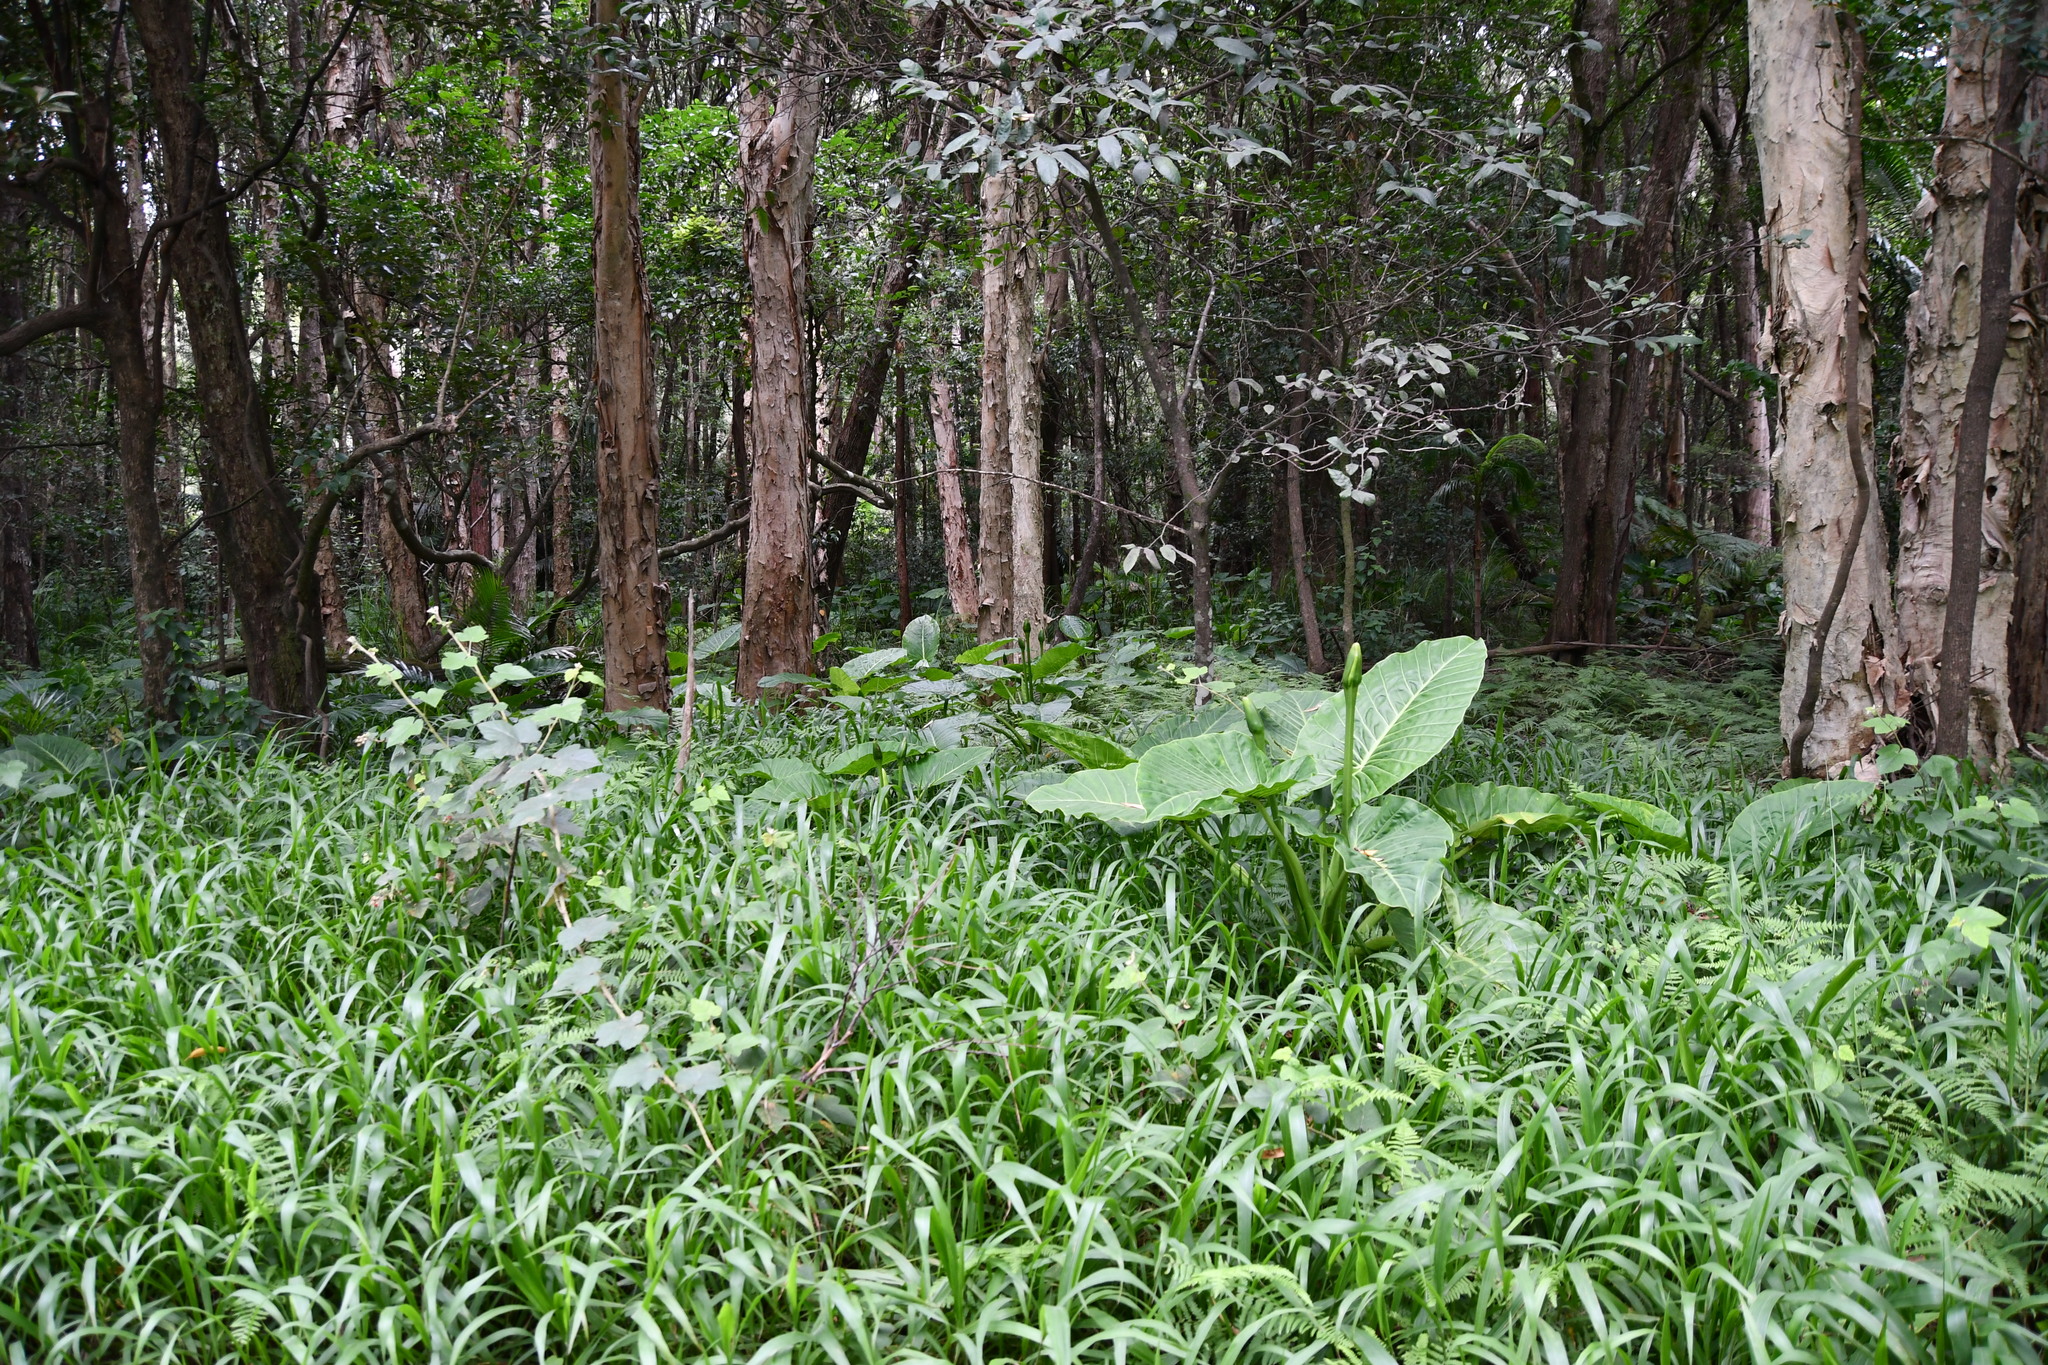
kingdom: Plantae
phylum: Tracheophyta
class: Liliopsida
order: Alismatales
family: Araceae
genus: Alocasia
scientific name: Alocasia brisbanensis
